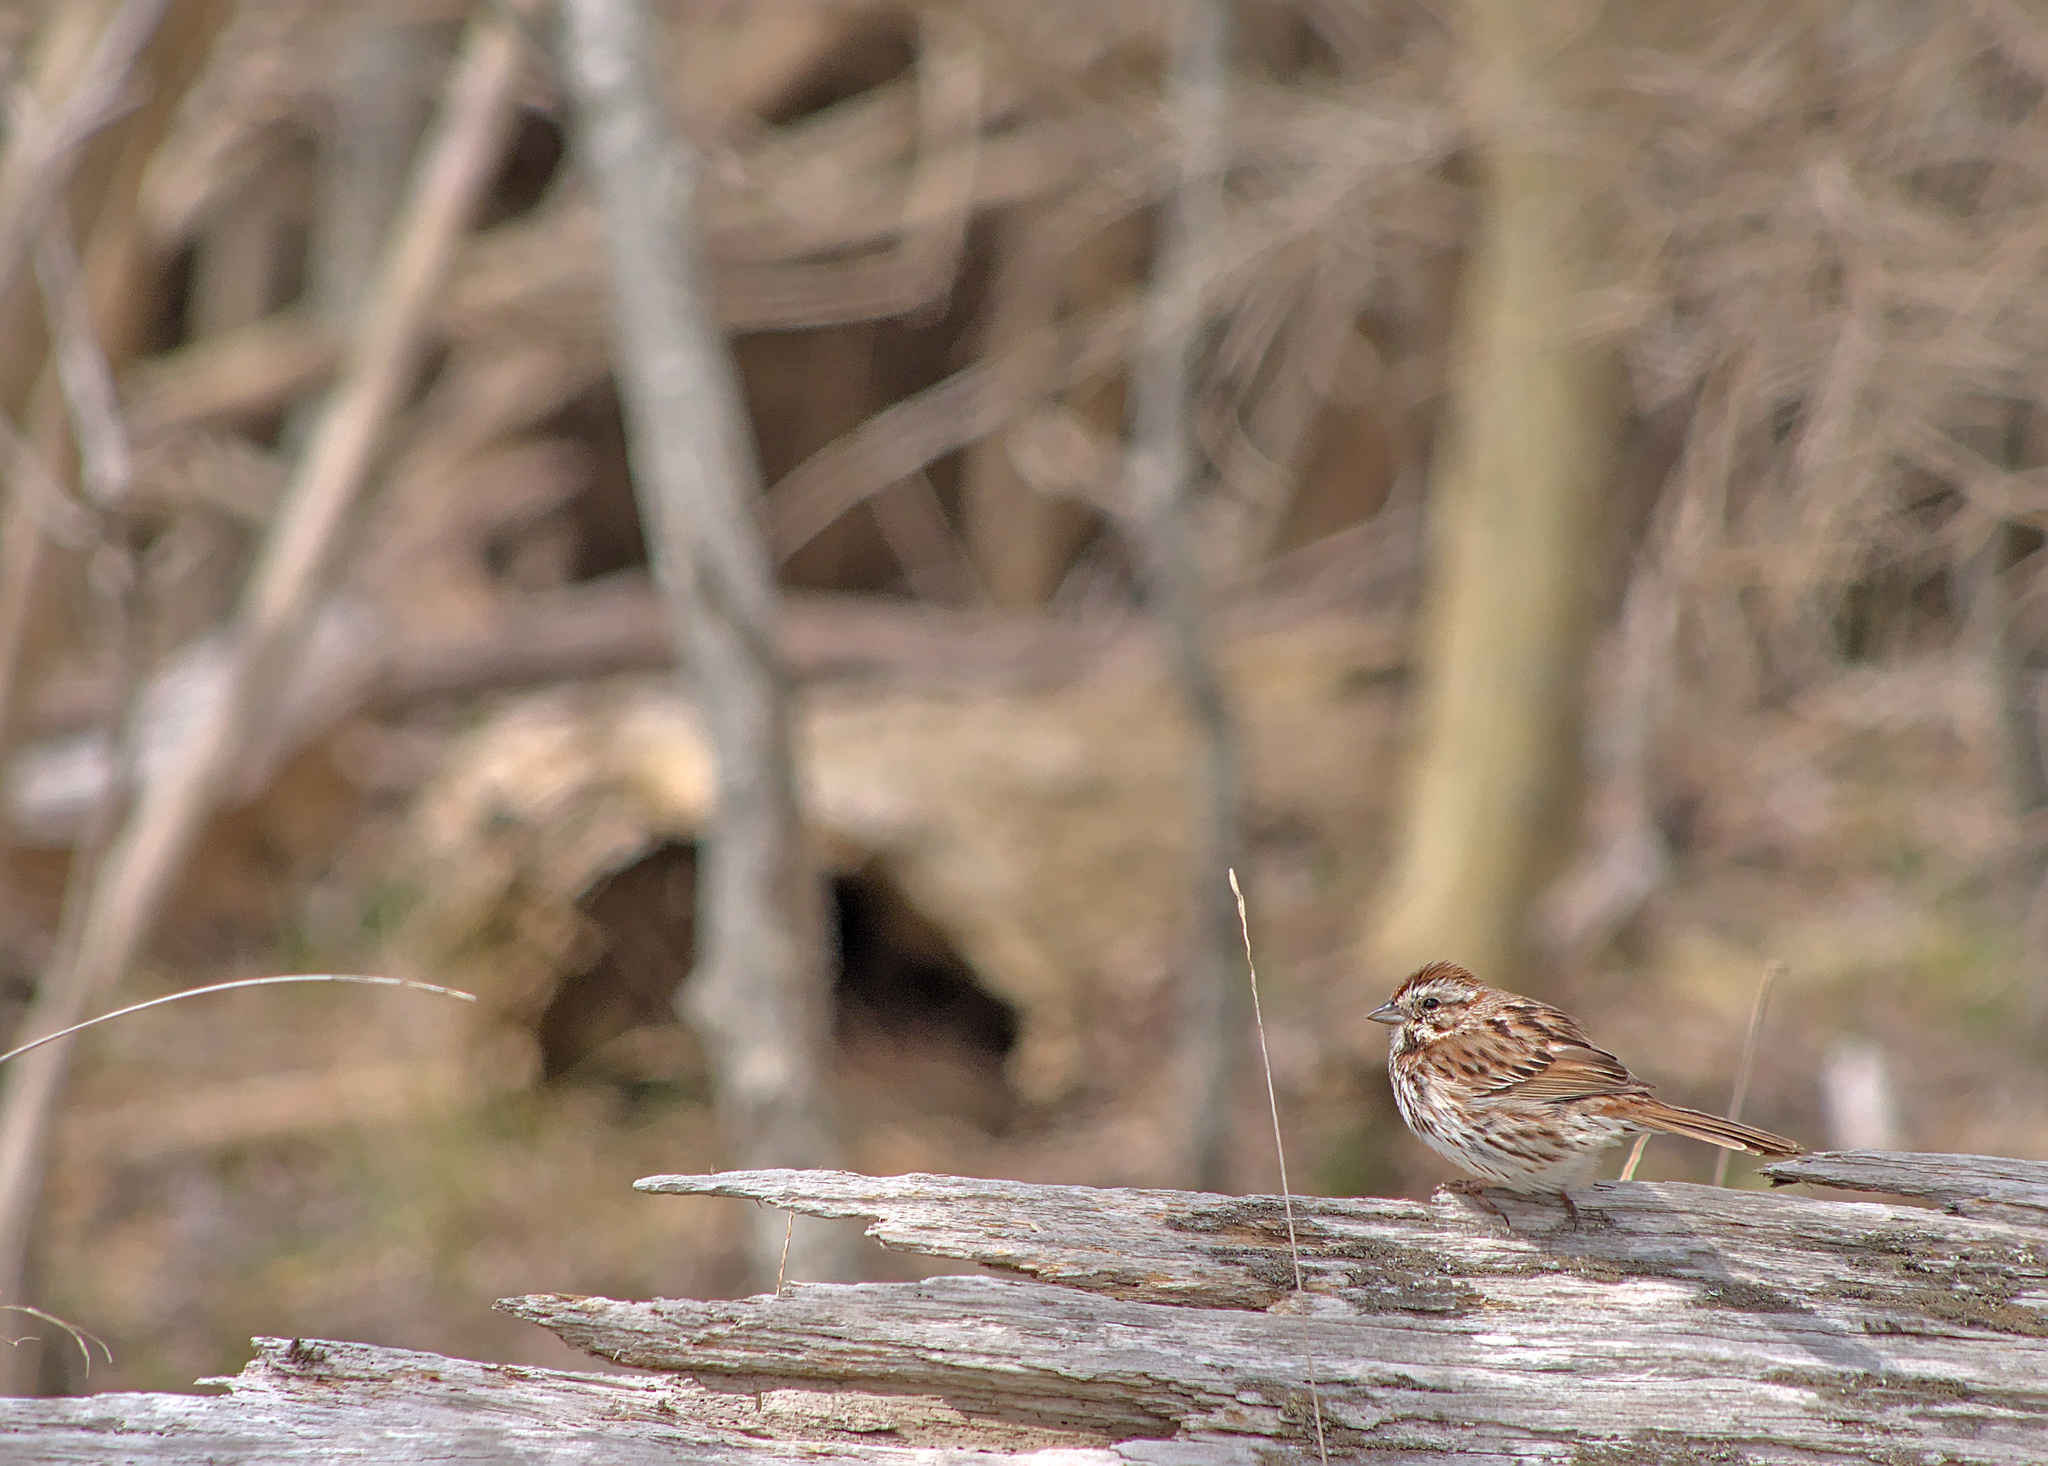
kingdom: Animalia
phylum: Chordata
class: Aves
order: Passeriformes
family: Passerellidae
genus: Melospiza
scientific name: Melospiza melodia
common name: Song sparrow
